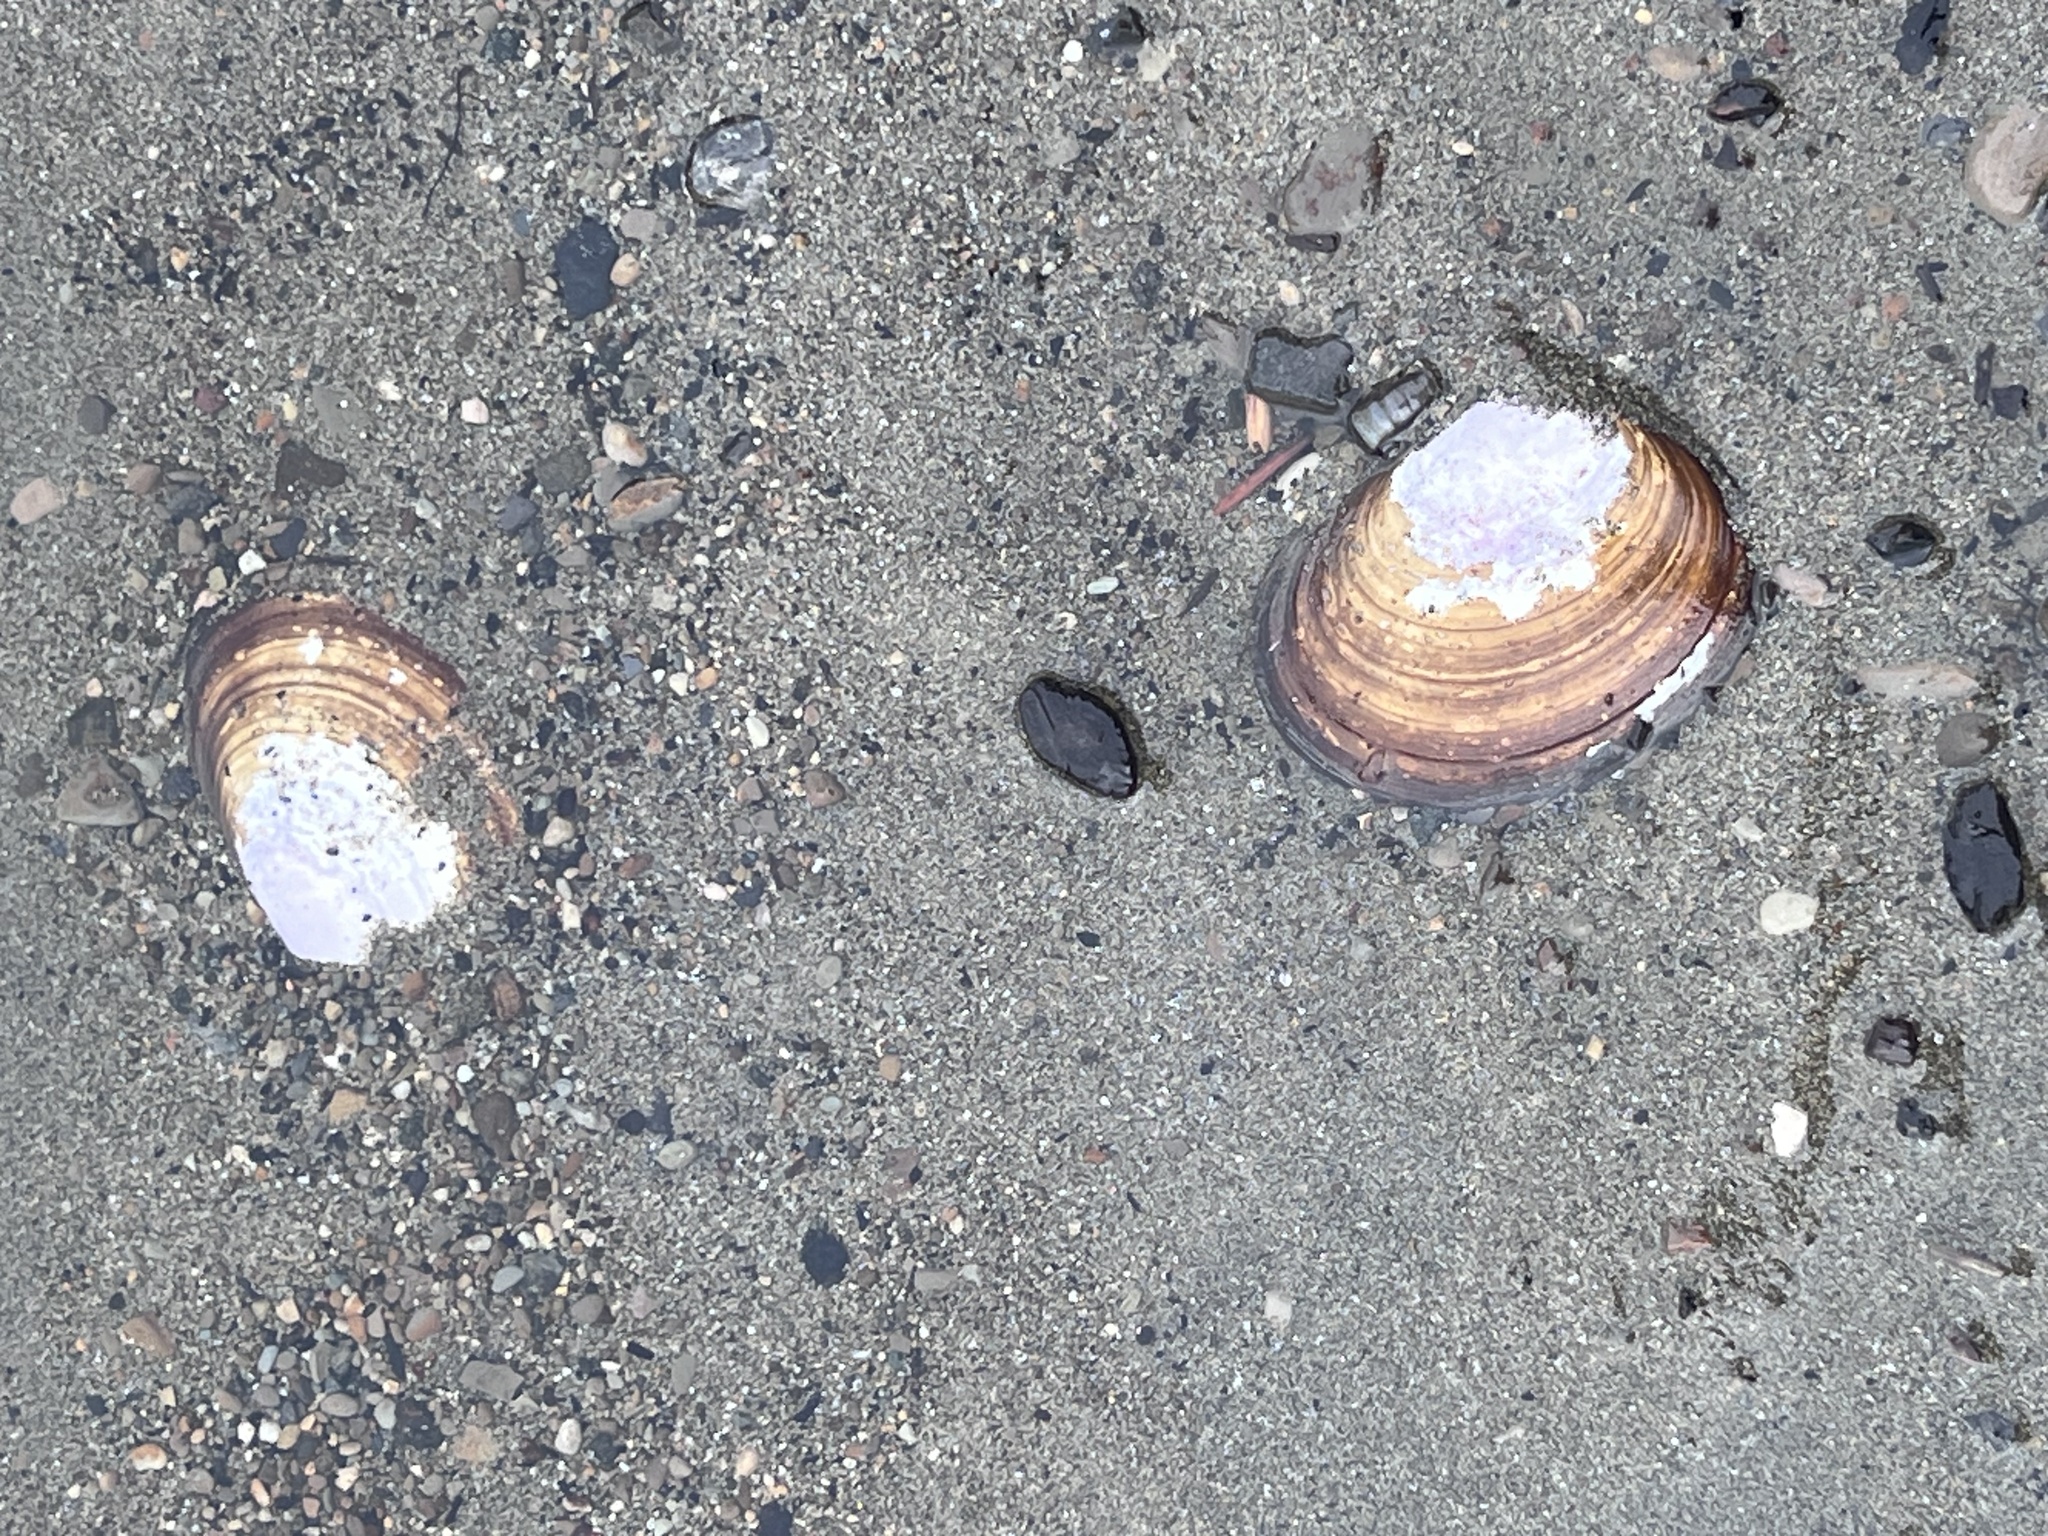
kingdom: Animalia
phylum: Mollusca
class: Bivalvia
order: Cardiida
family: Psammobiidae
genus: Nuttallia
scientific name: Nuttallia obscurata
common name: Purple mahogany-clam
